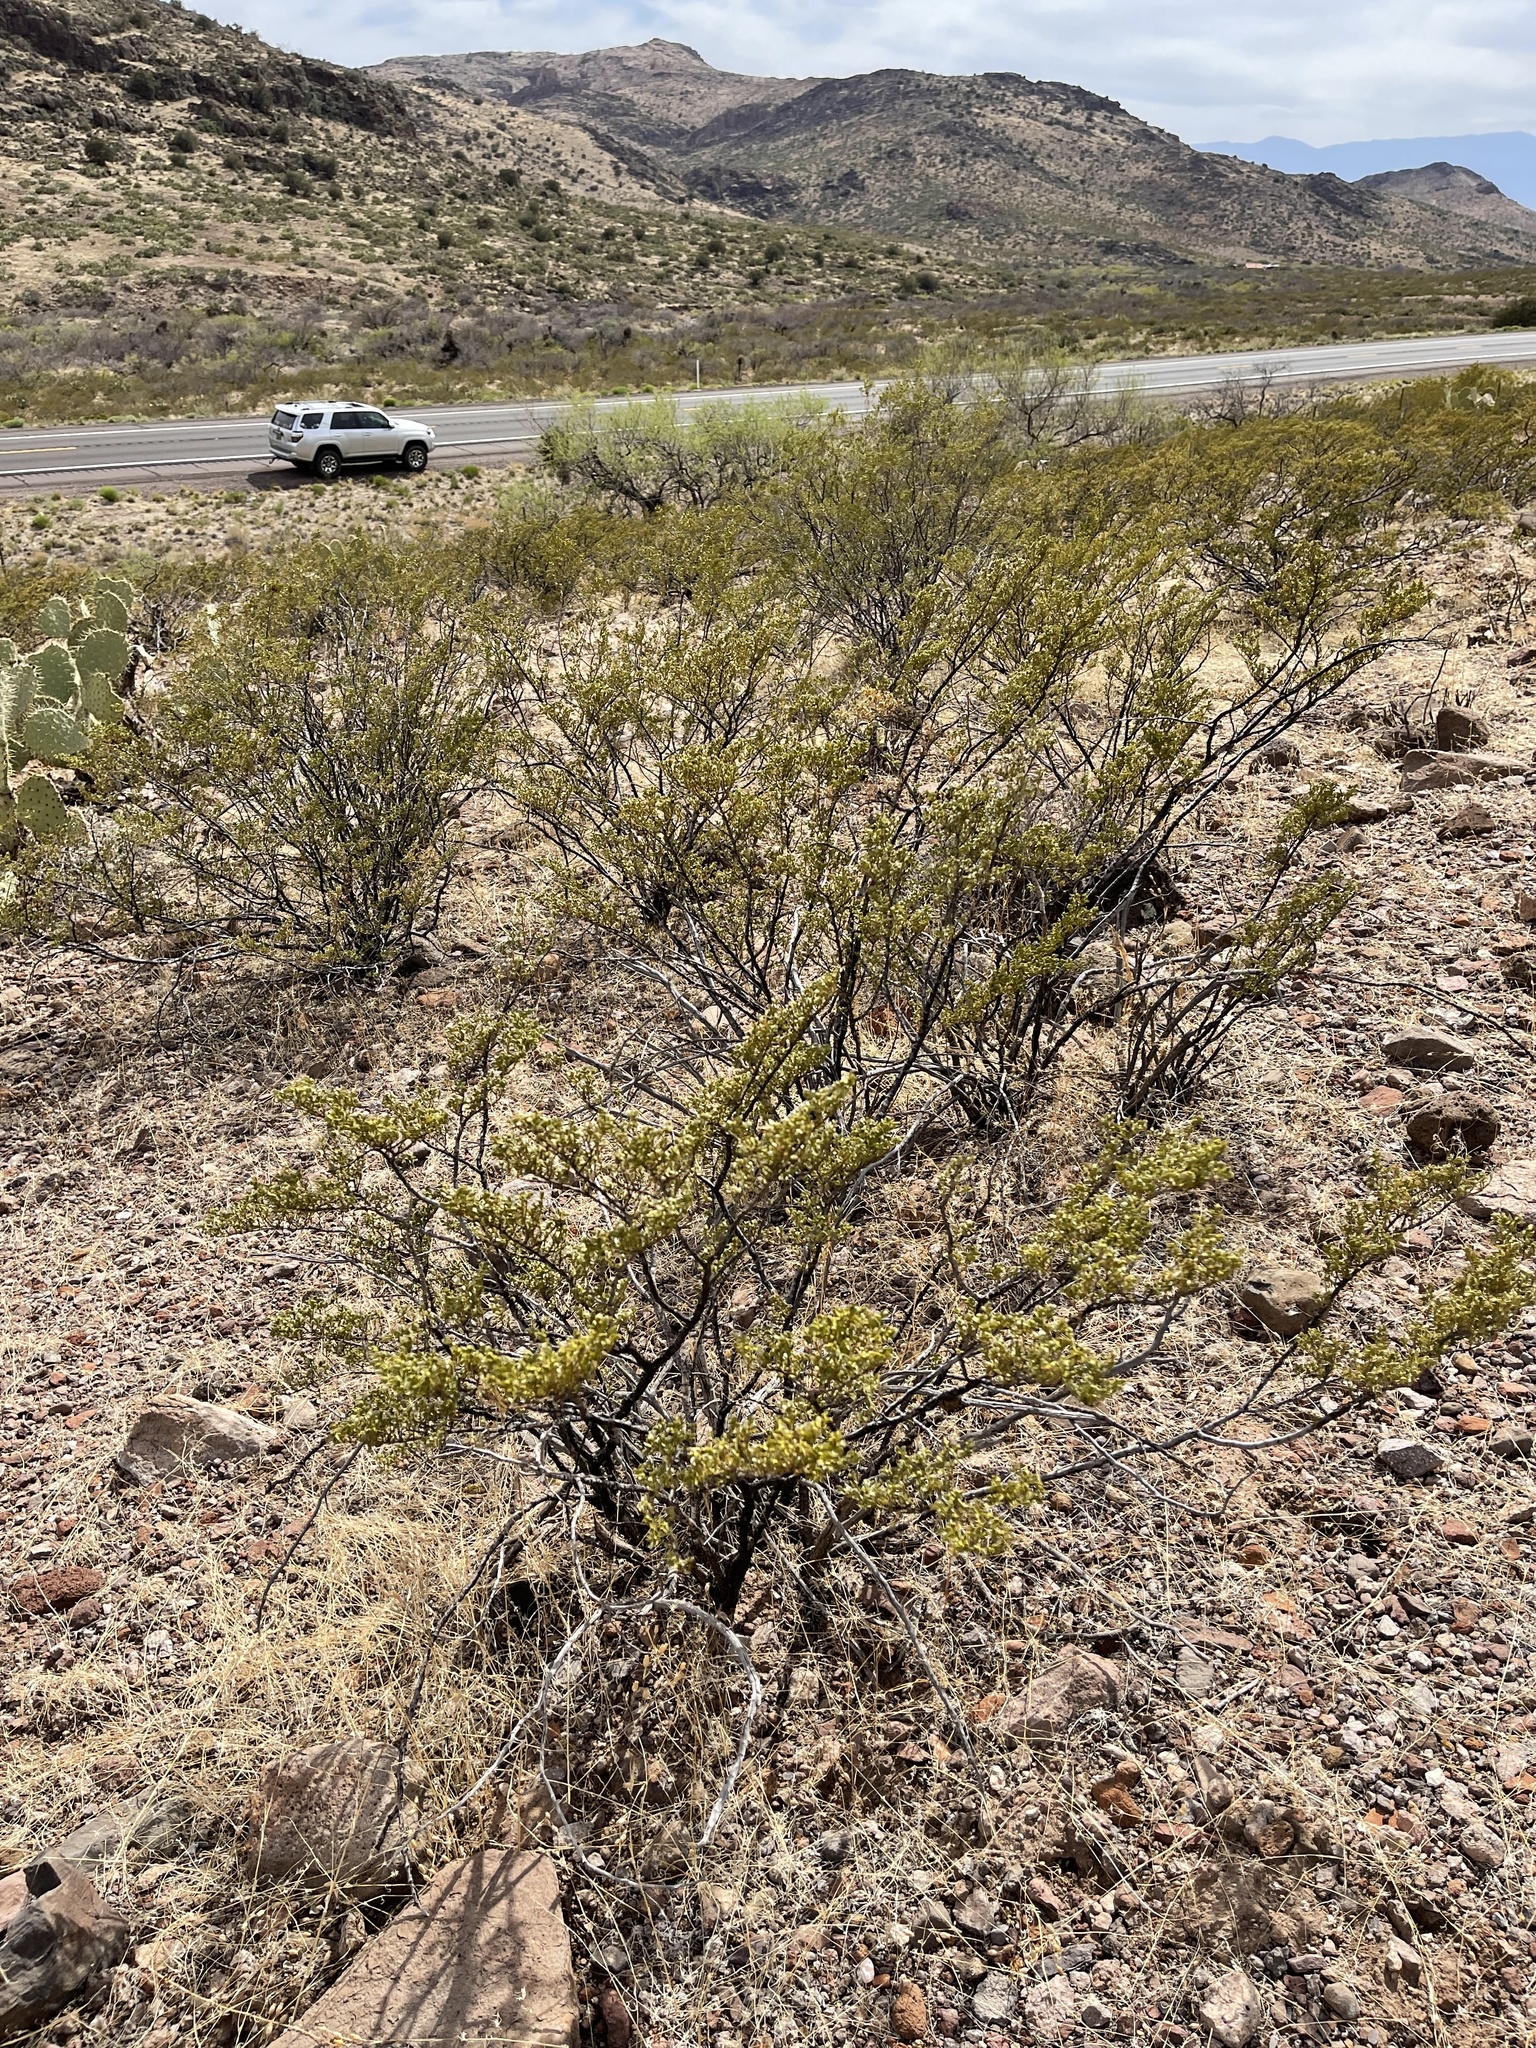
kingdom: Plantae
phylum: Tracheophyta
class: Magnoliopsida
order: Zygophyllales
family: Zygophyllaceae
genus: Larrea
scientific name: Larrea tridentata
